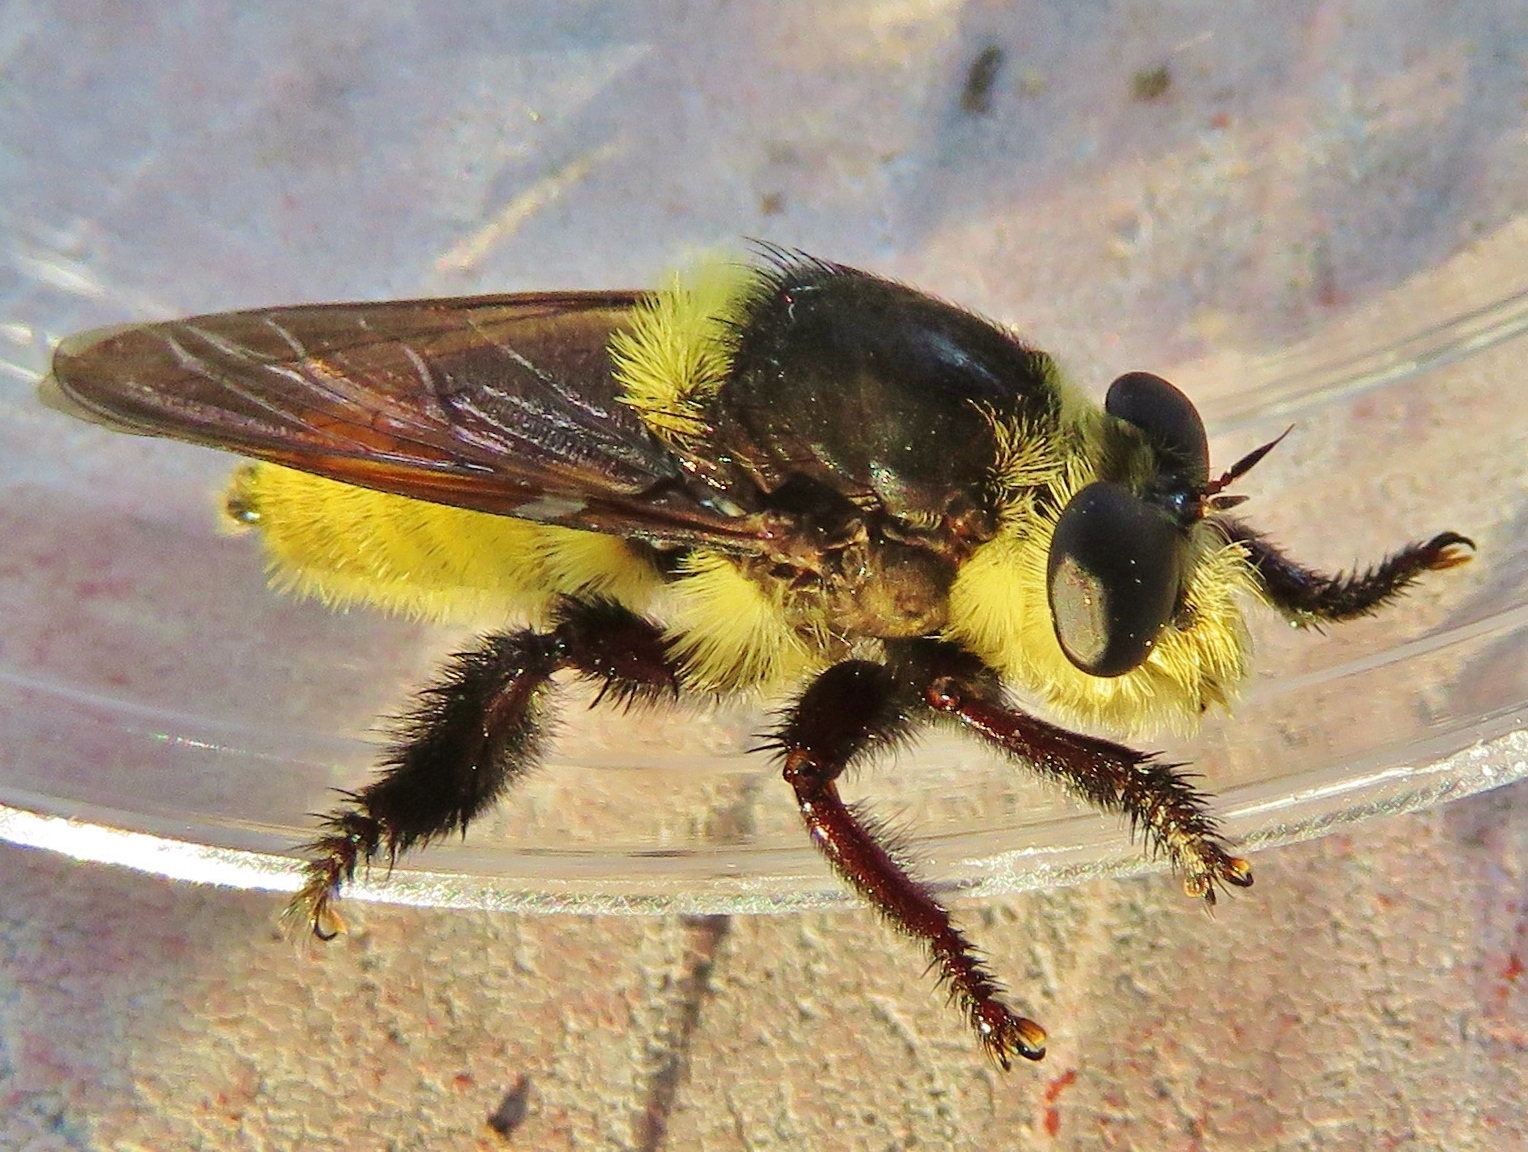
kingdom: Animalia
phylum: Arthropoda
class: Insecta
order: Diptera
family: Asilidae
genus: Mallophora
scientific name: Mallophora fautrix
